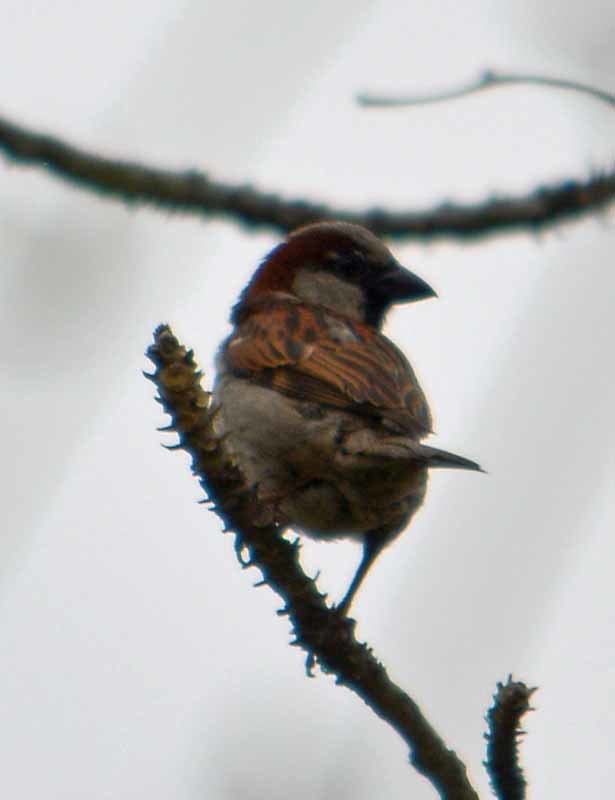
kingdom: Animalia
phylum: Chordata
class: Aves
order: Passeriformes
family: Passeridae
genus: Passer
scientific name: Passer domesticus
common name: House sparrow
